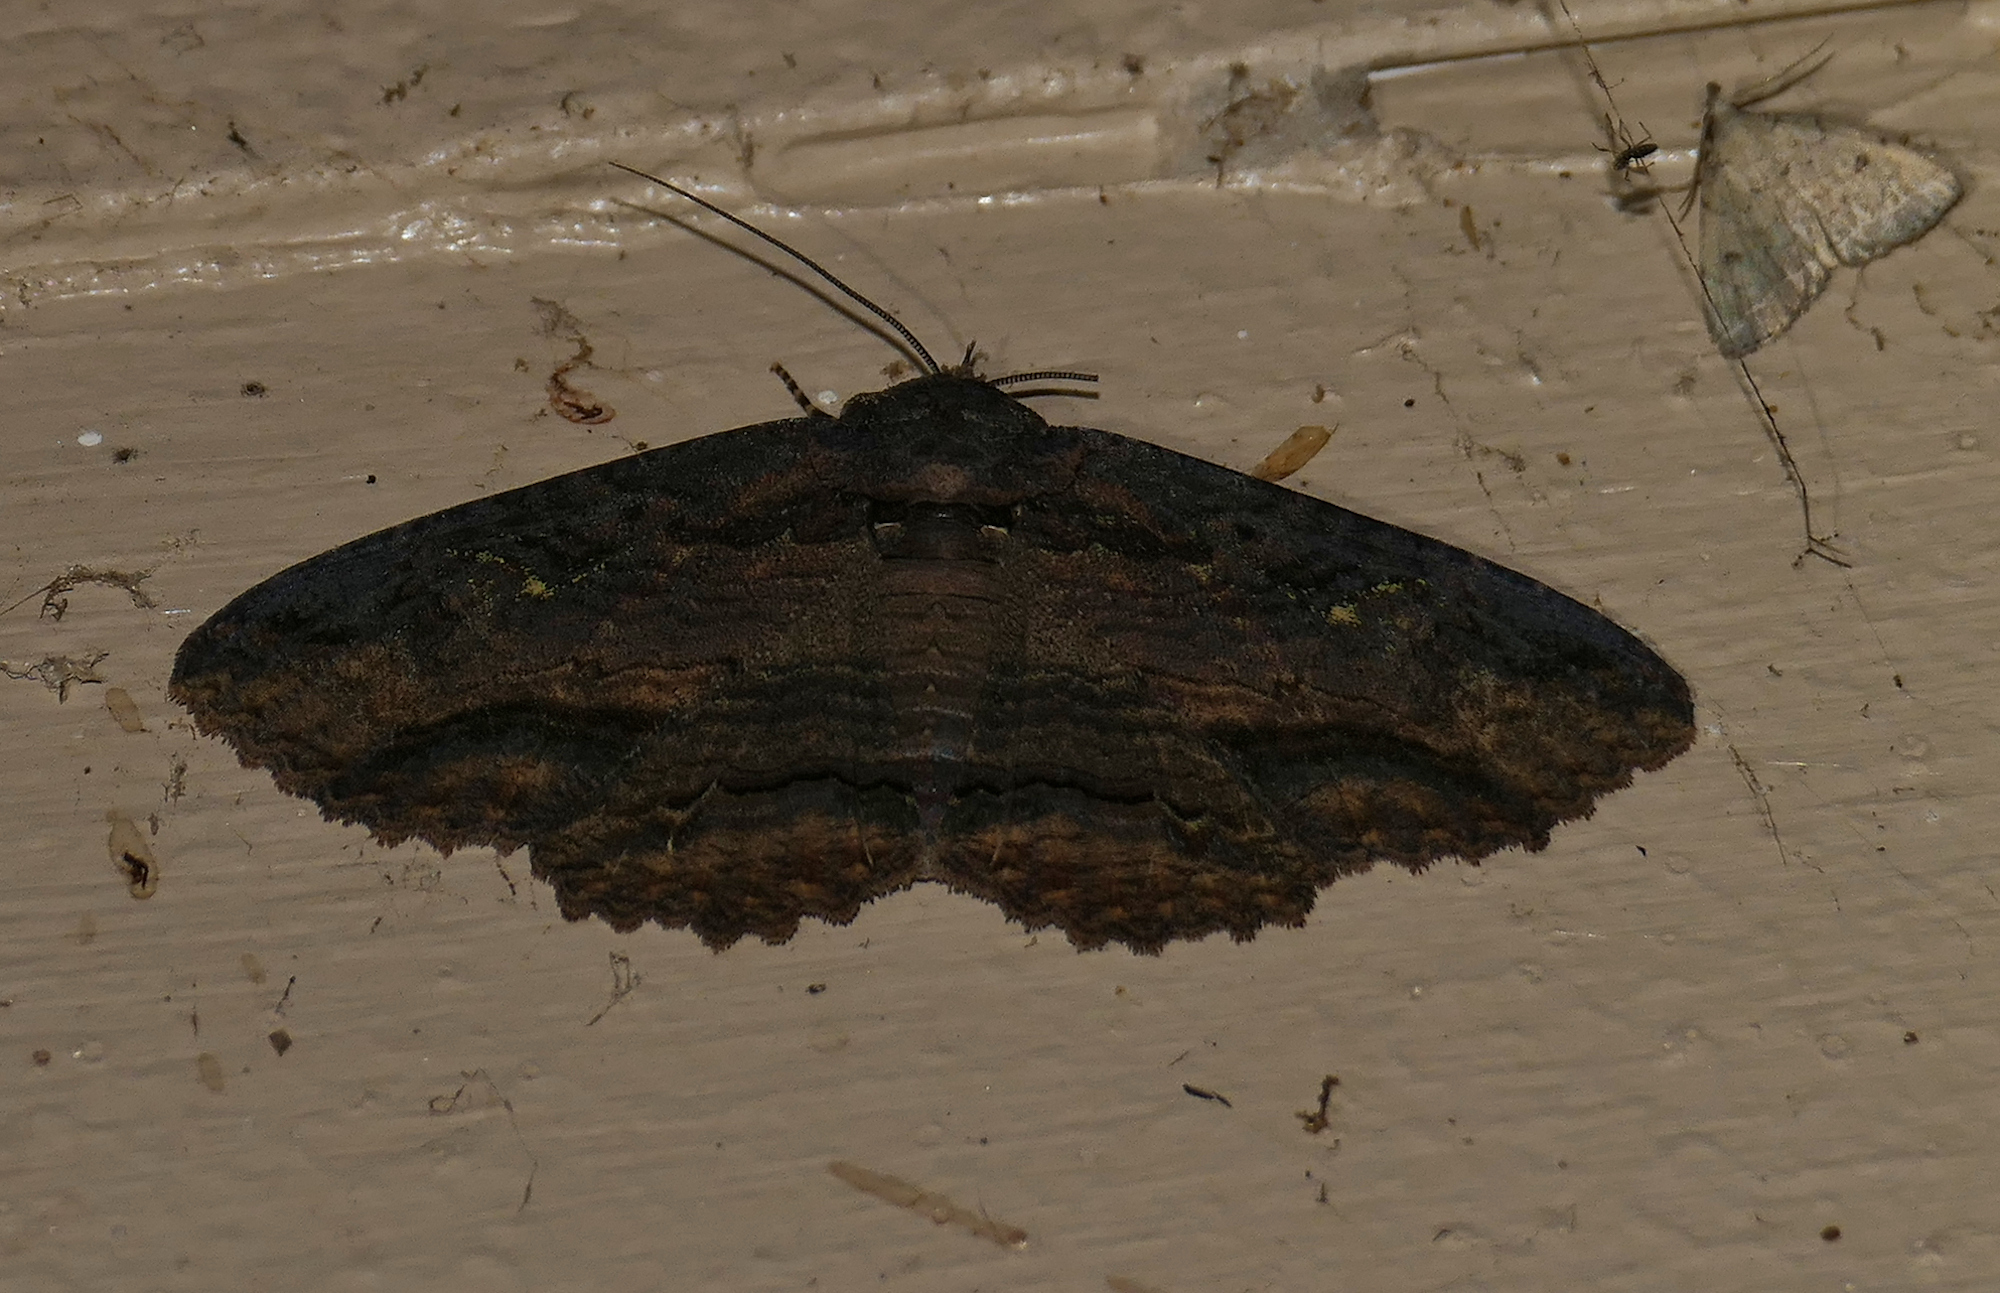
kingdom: Animalia
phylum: Arthropoda
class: Insecta
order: Lepidoptera
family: Erebidae
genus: Zale
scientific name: Zale lunata
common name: Lunate zale moth
